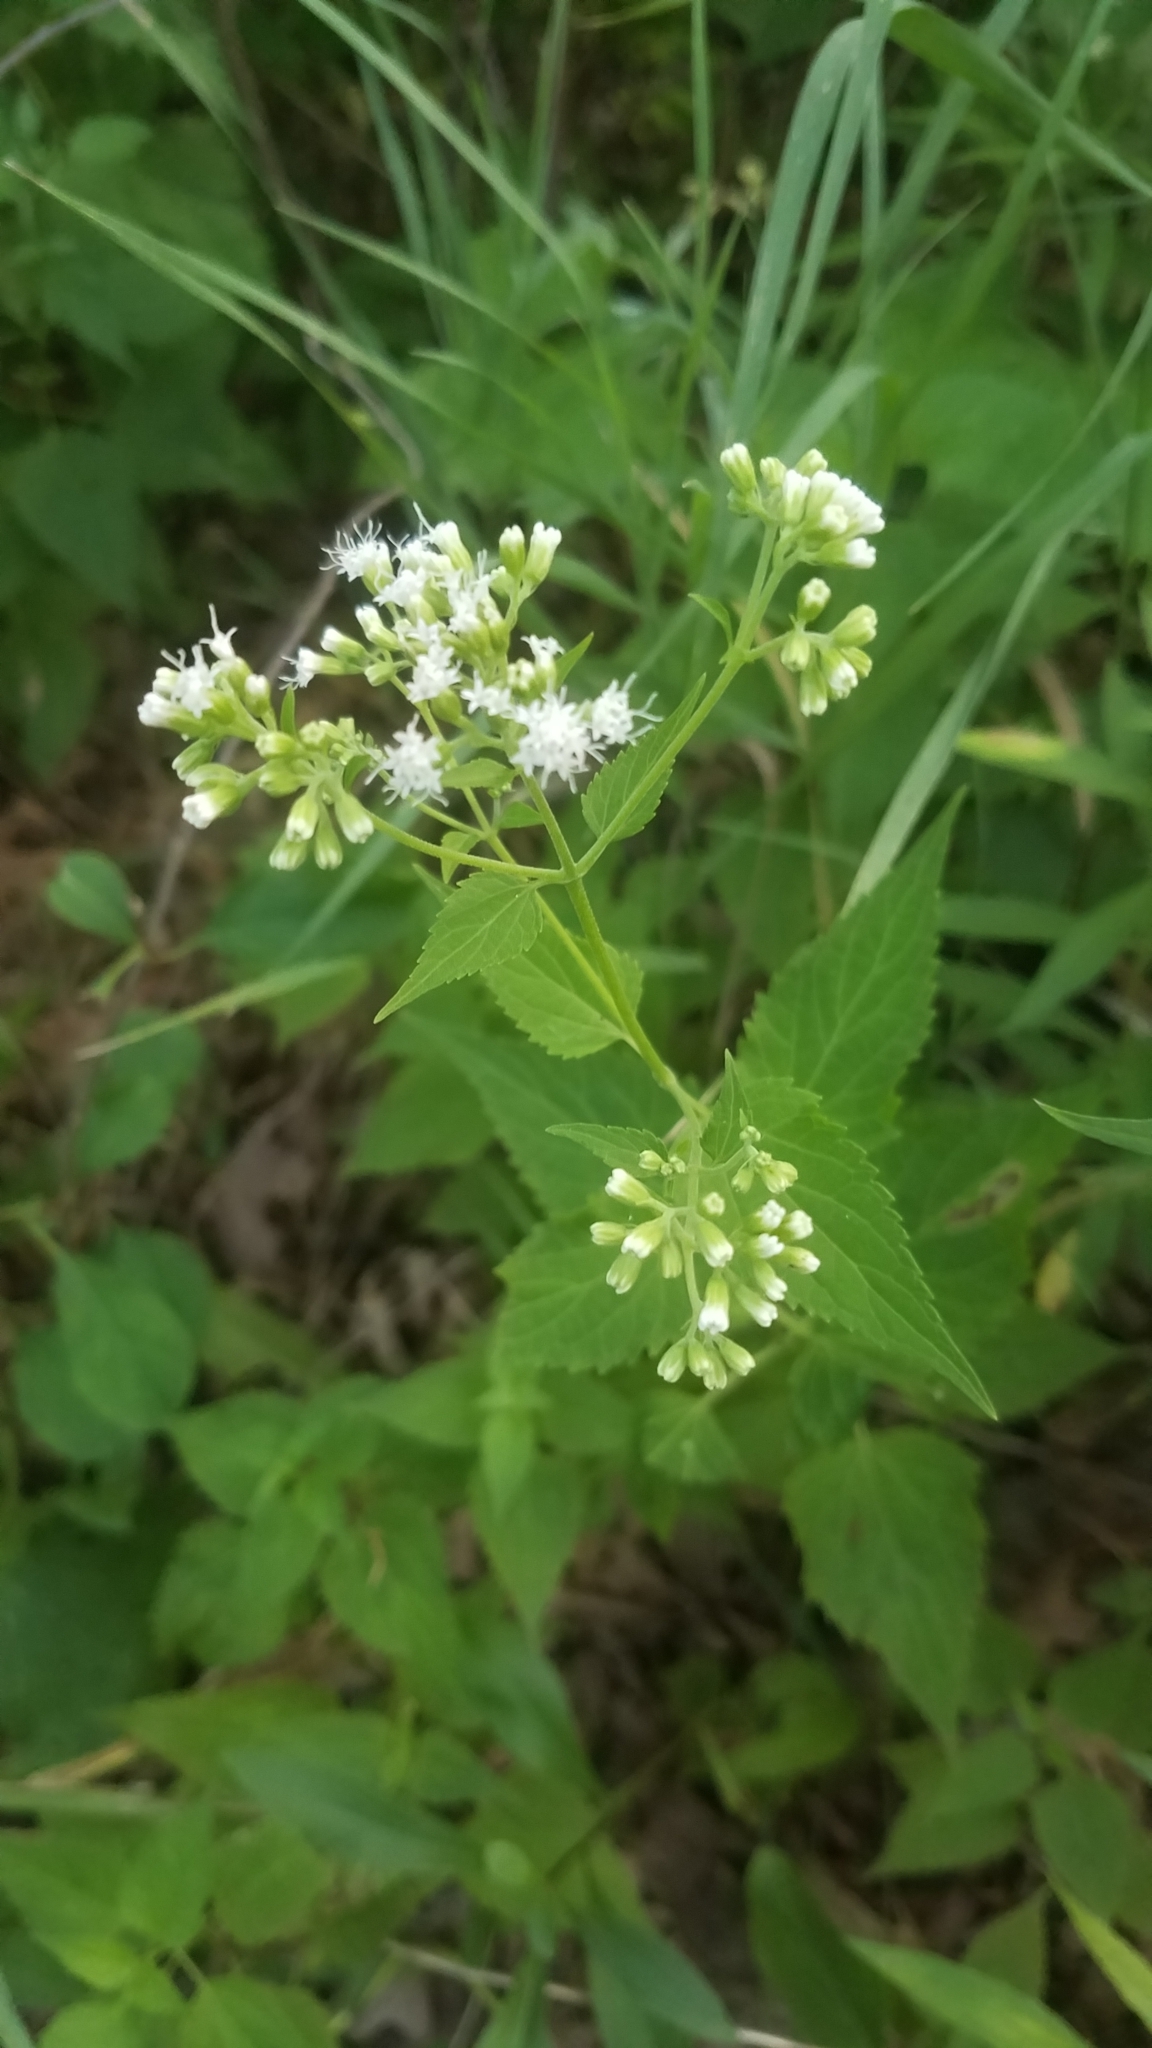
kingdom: Plantae
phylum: Tracheophyta
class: Magnoliopsida
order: Asterales
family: Asteraceae
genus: Ageratina
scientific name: Ageratina altissima
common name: White snakeroot
